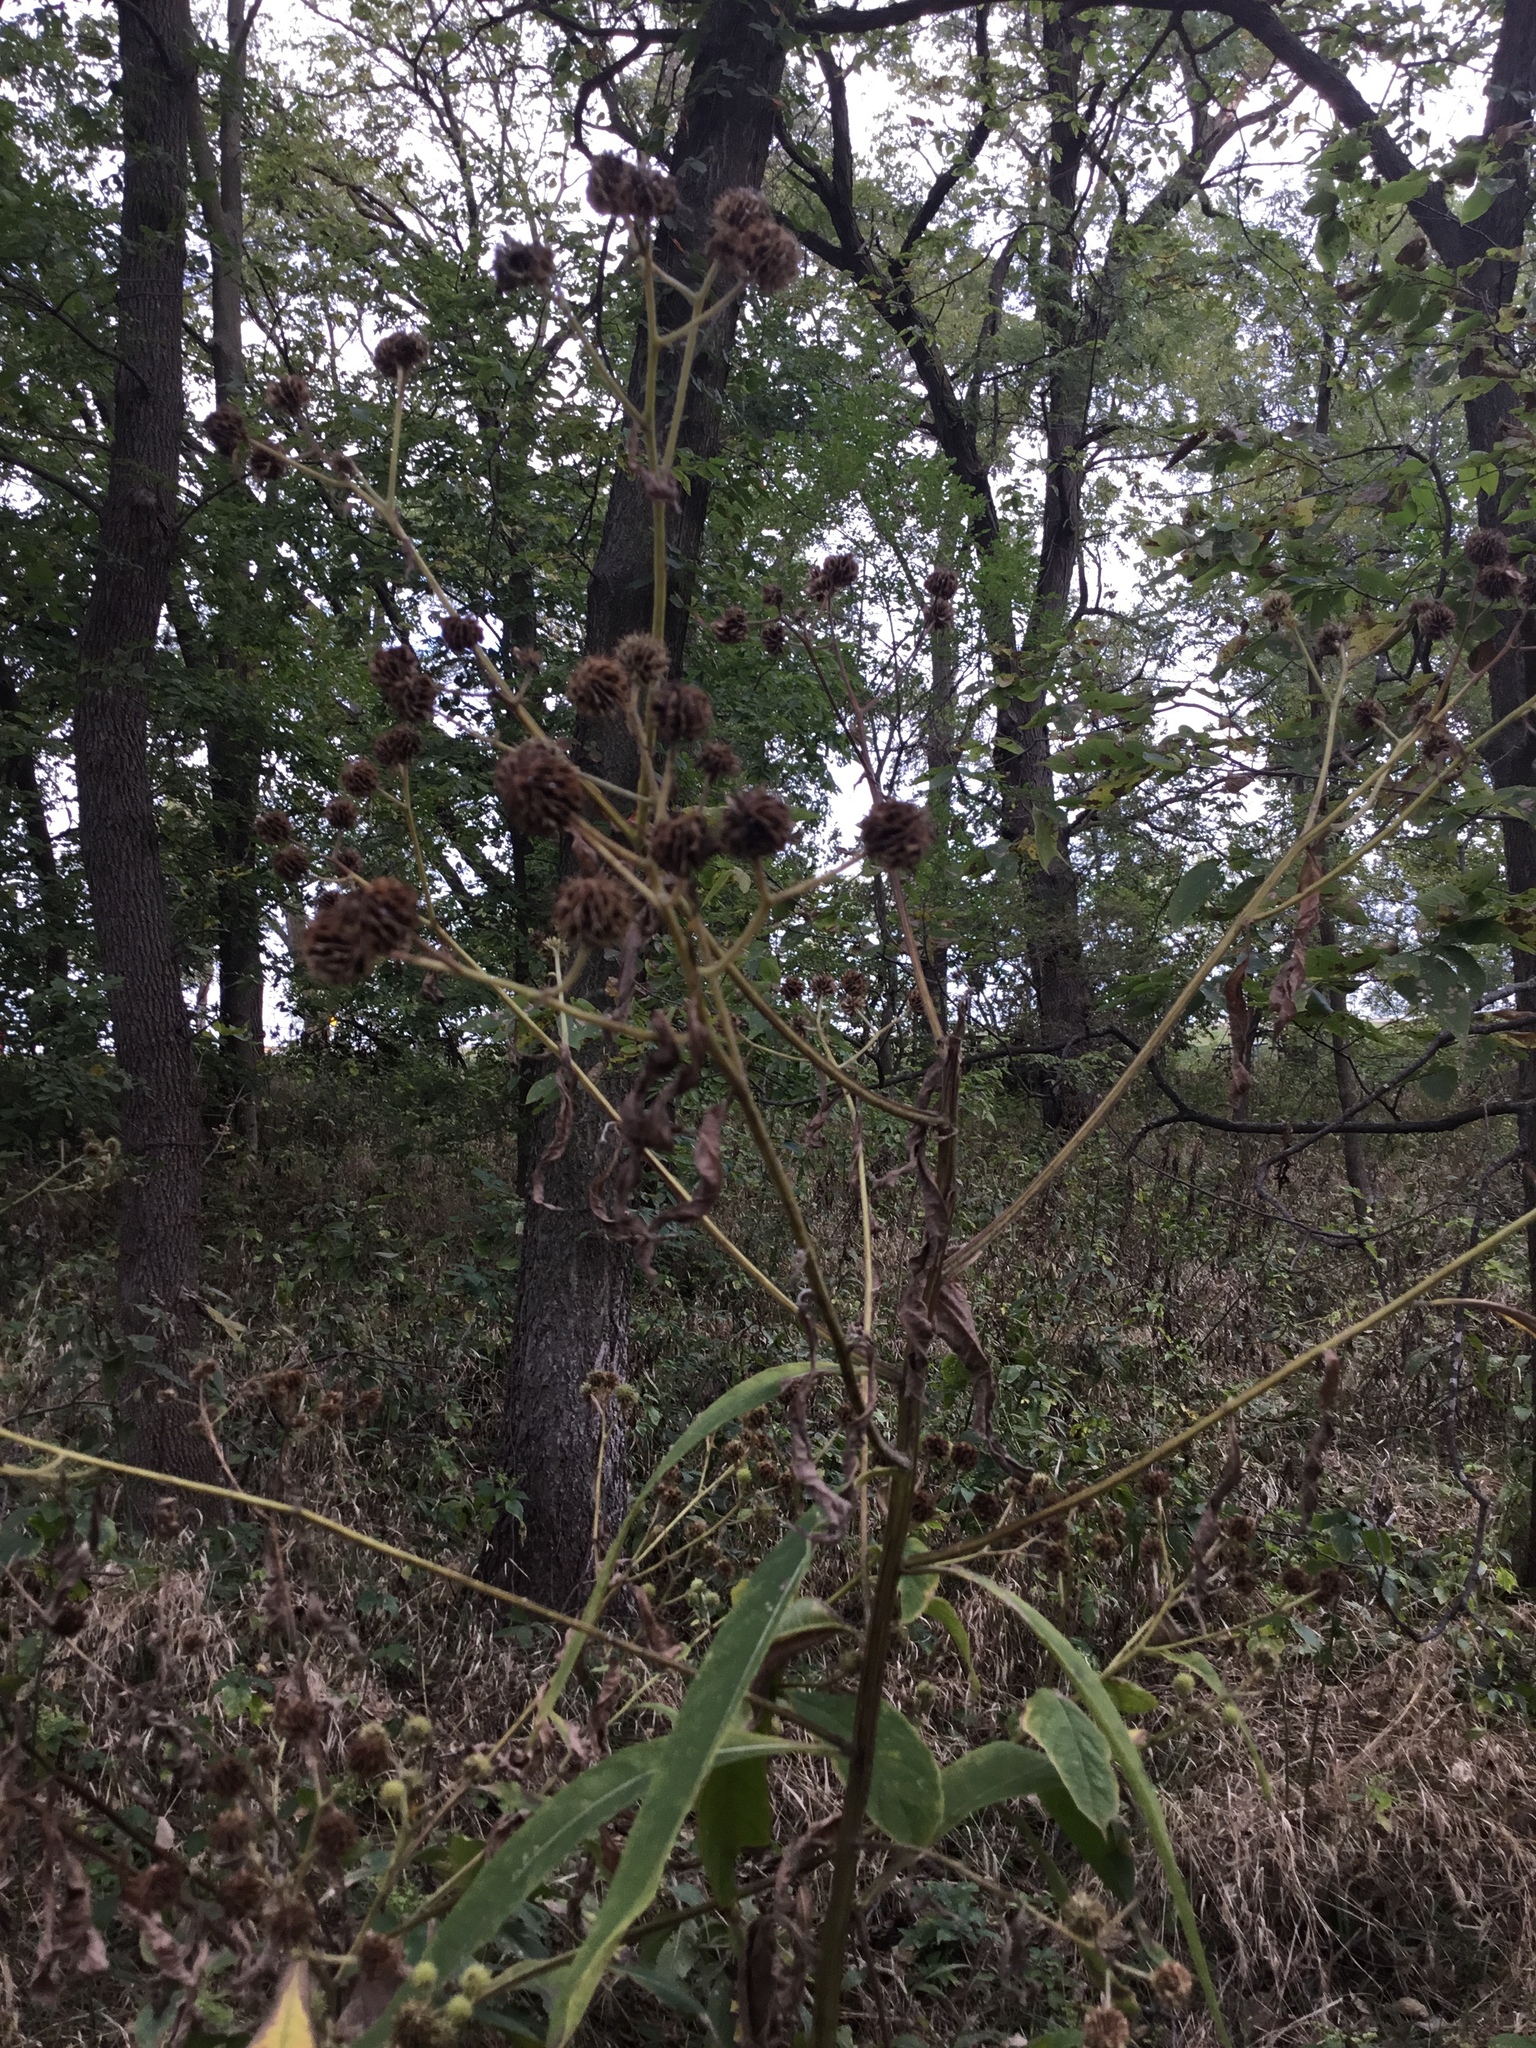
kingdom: Plantae
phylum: Tracheophyta
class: Magnoliopsida
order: Asterales
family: Asteraceae
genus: Verbesina
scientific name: Verbesina alternifolia
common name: Wingstem
